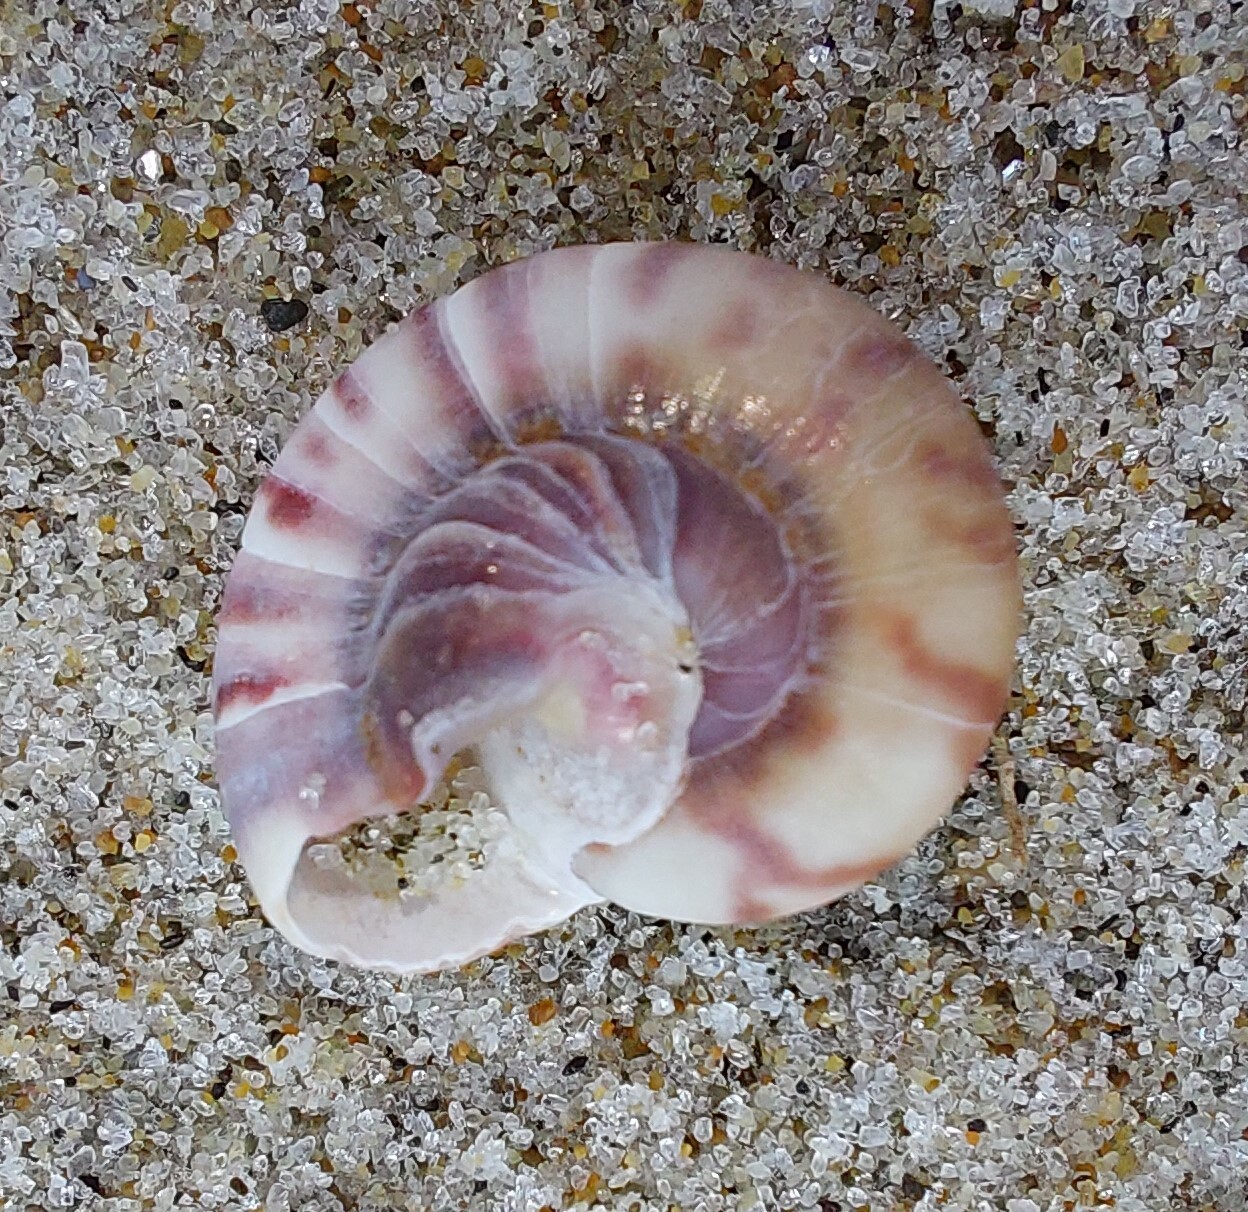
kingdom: Animalia
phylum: Mollusca
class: Gastropoda
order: Trochida
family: Trochidae
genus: Zethalia
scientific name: Zethalia zelandica
